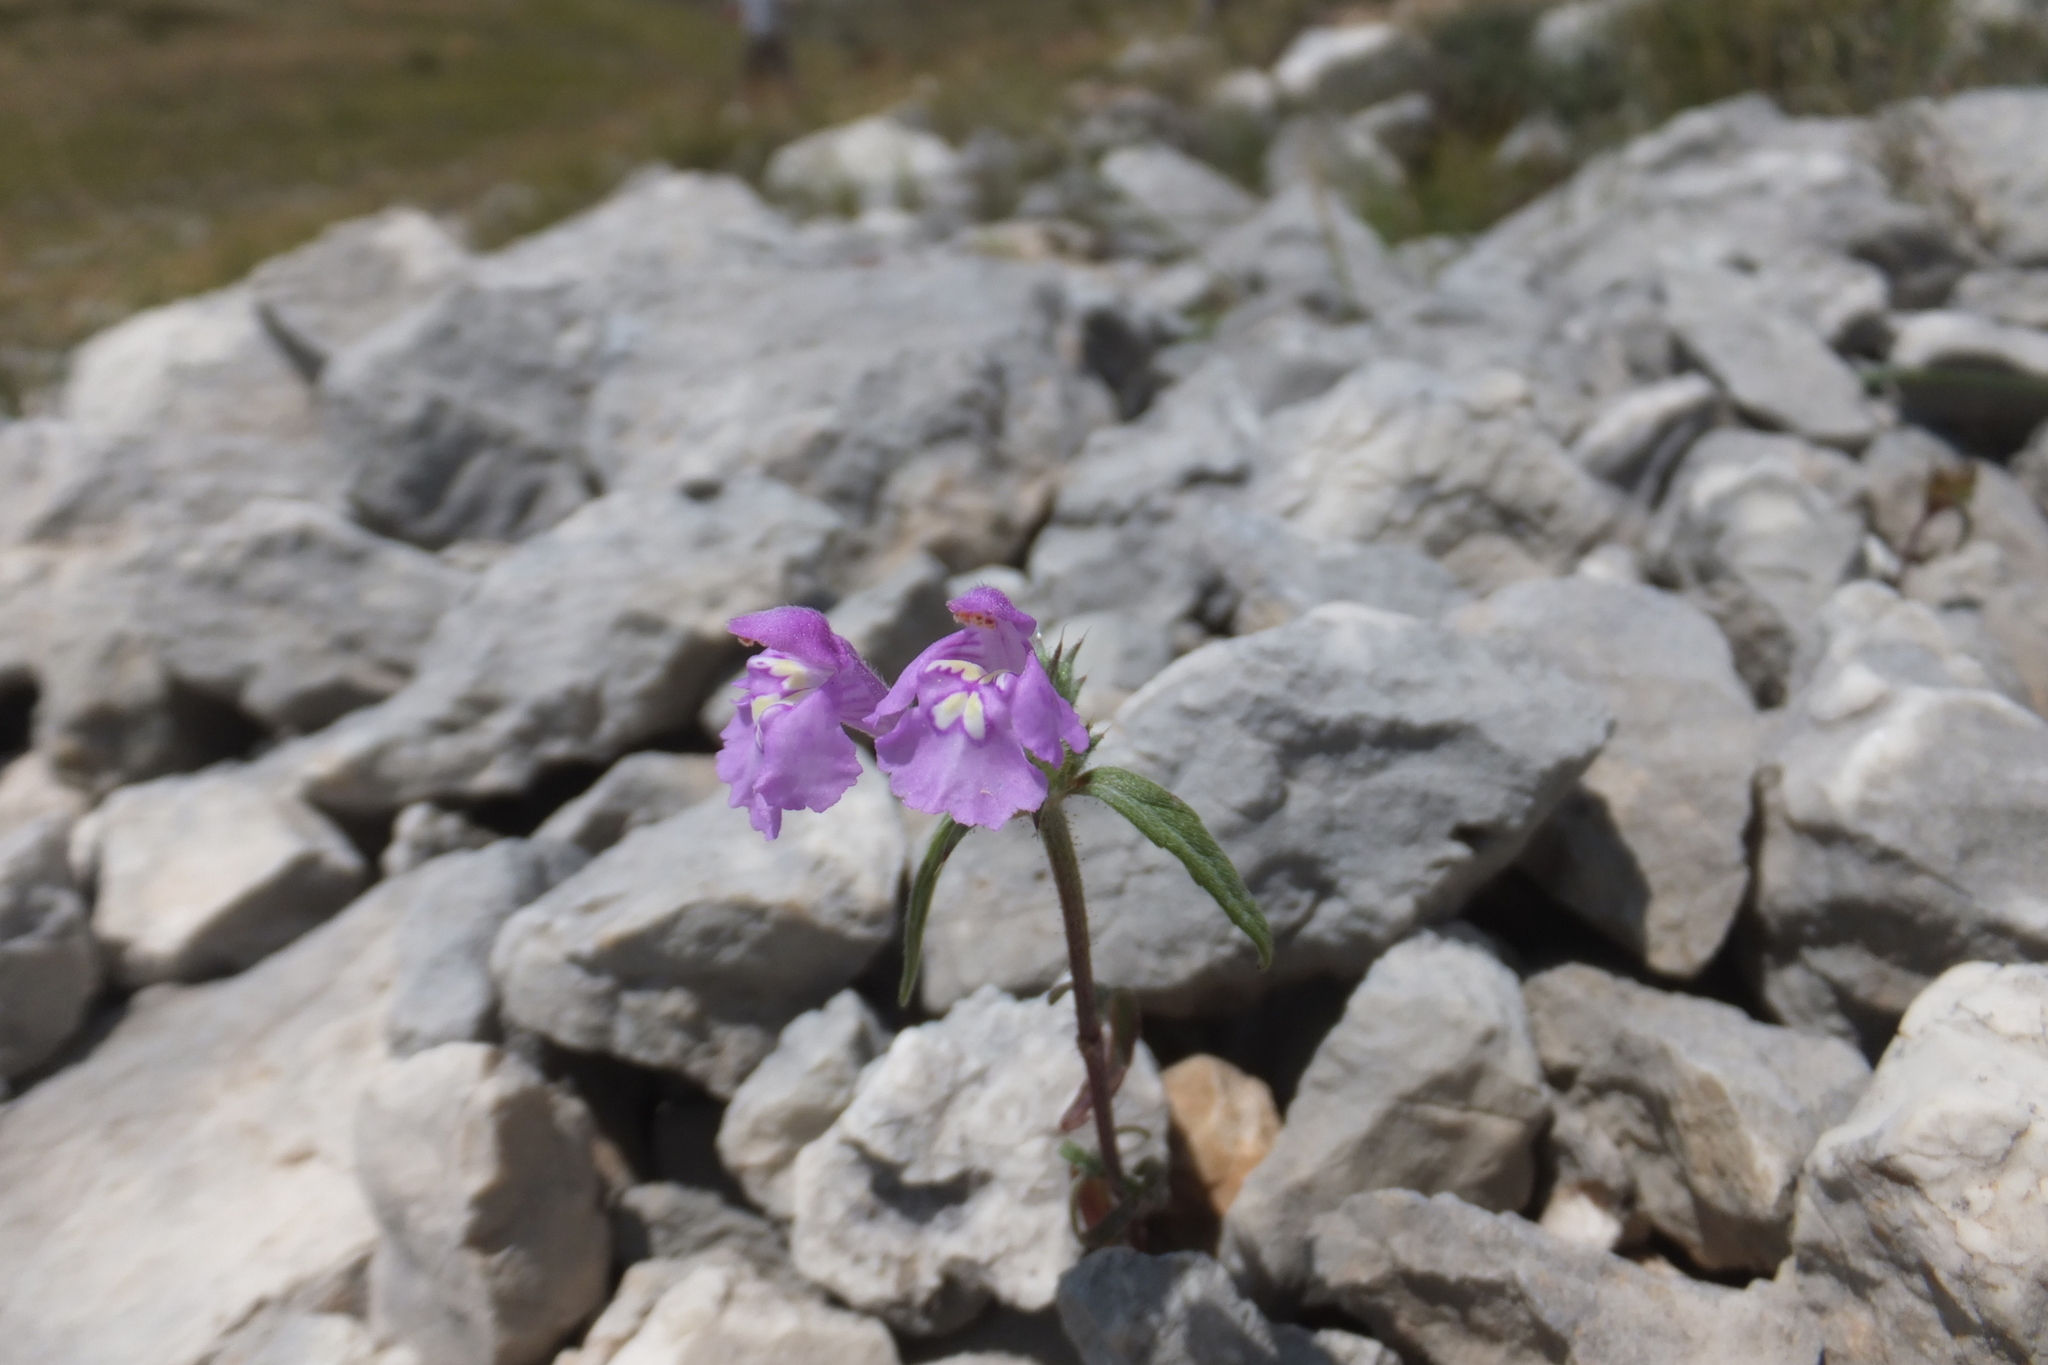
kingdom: Plantae
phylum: Tracheophyta
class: Magnoliopsida
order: Lamiales
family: Lamiaceae
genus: Galeopsis
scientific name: Galeopsis angustifolia
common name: Red hemp-nettle
